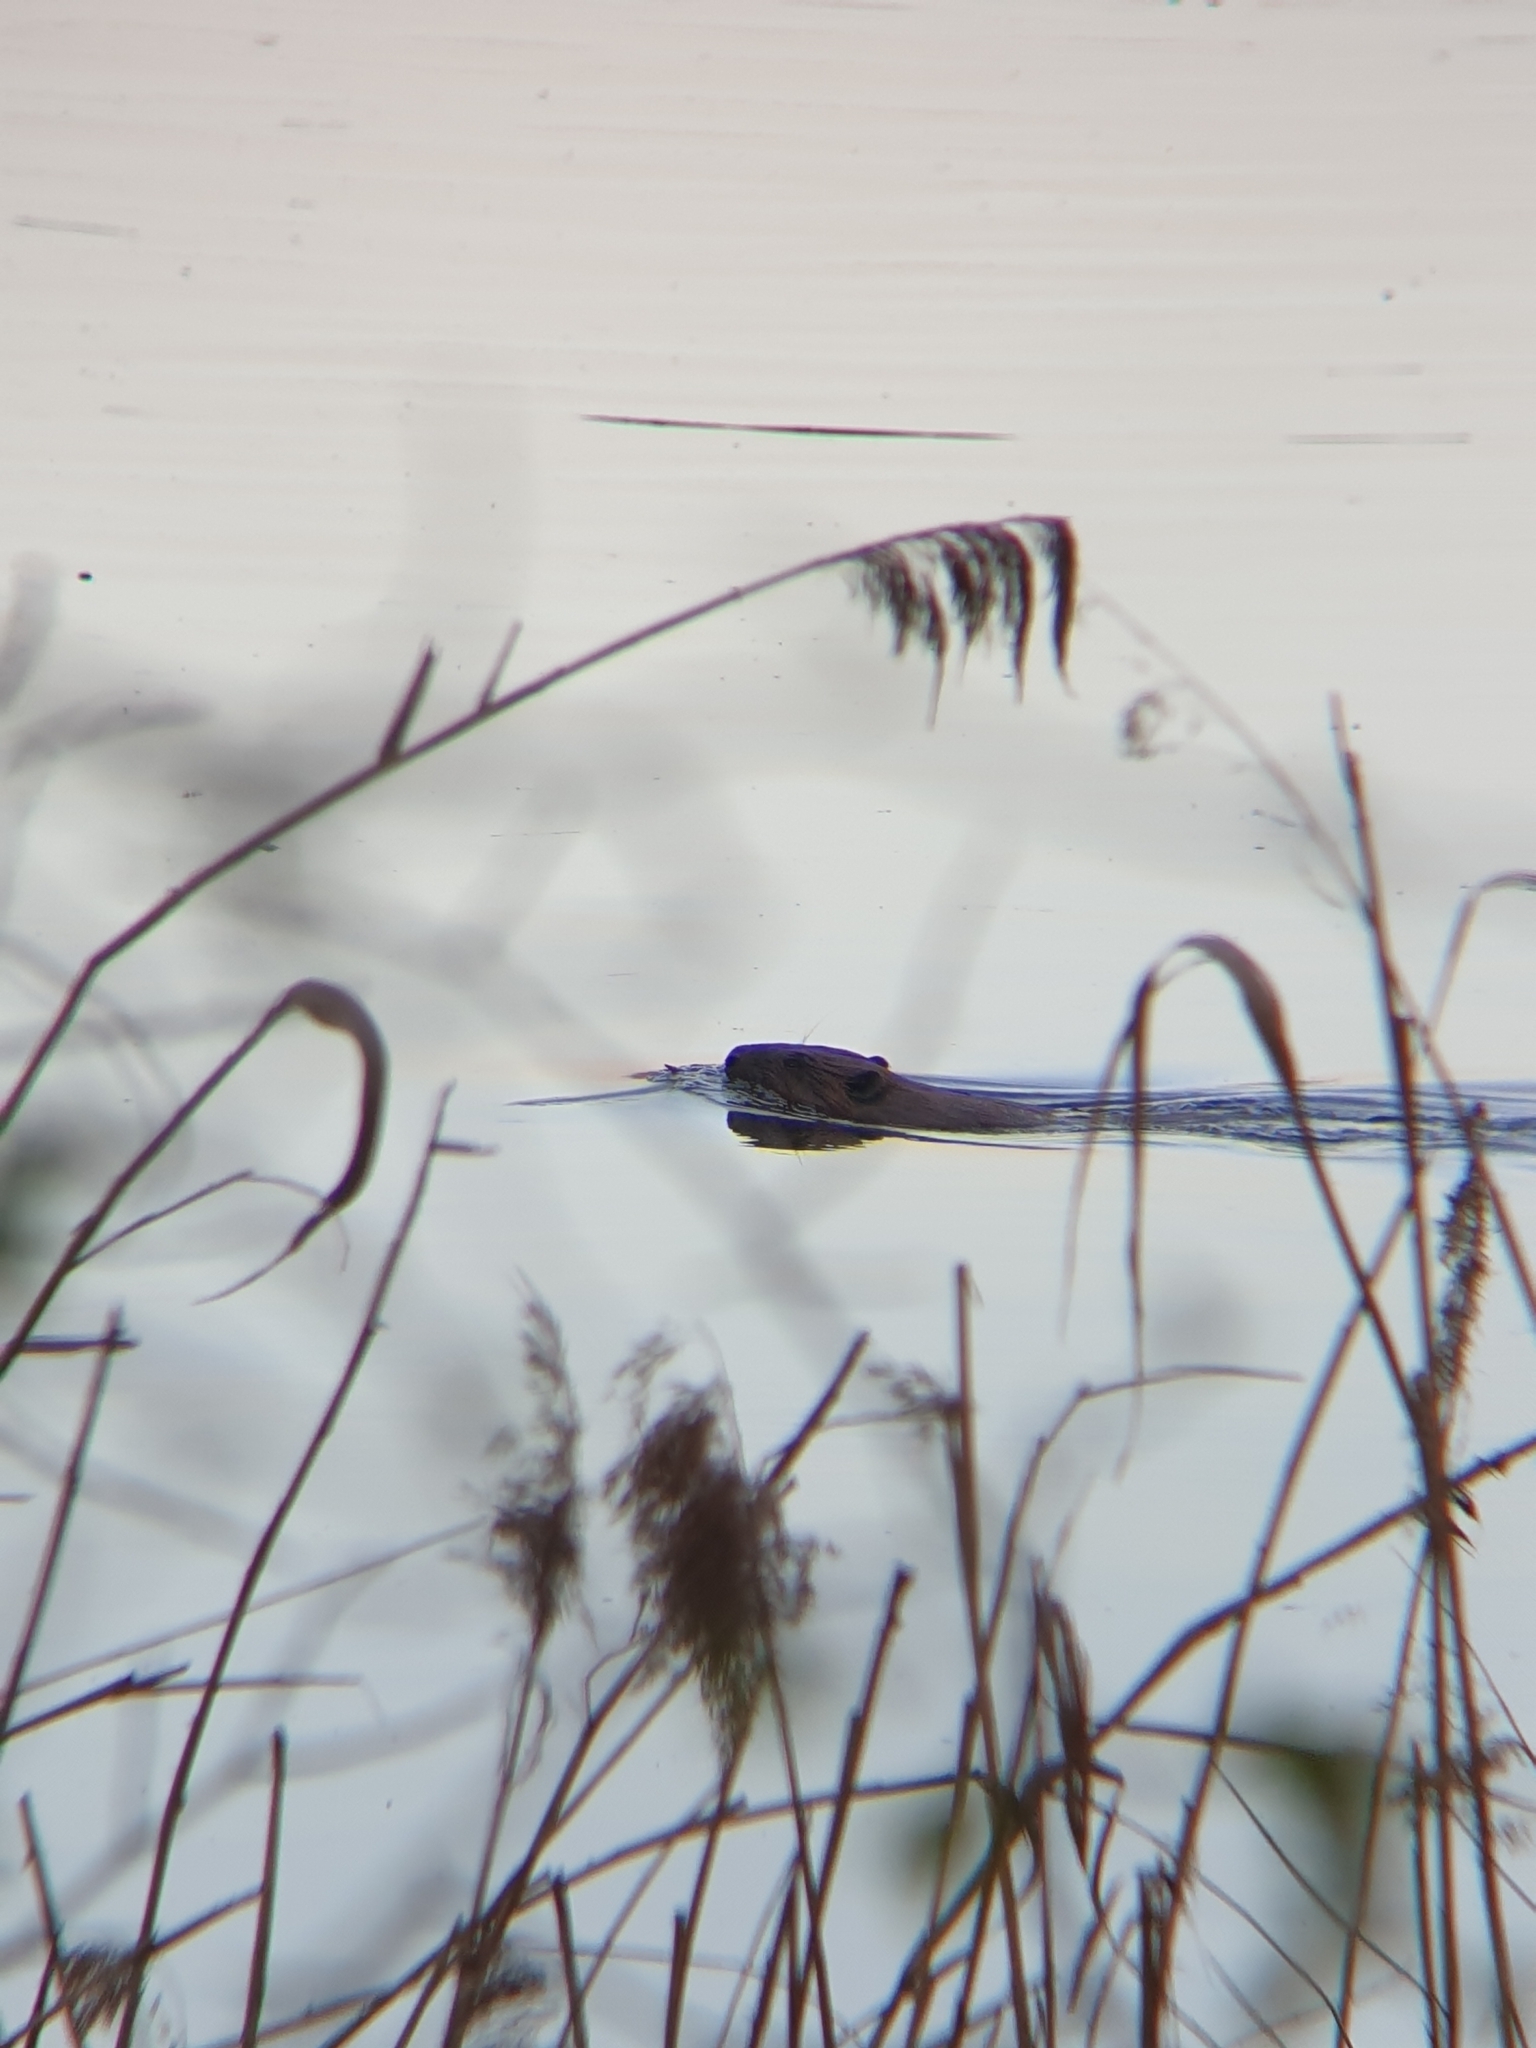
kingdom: Animalia
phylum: Chordata
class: Mammalia
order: Rodentia
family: Castoridae
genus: Castor
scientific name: Castor fiber
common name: Eurasian beaver
